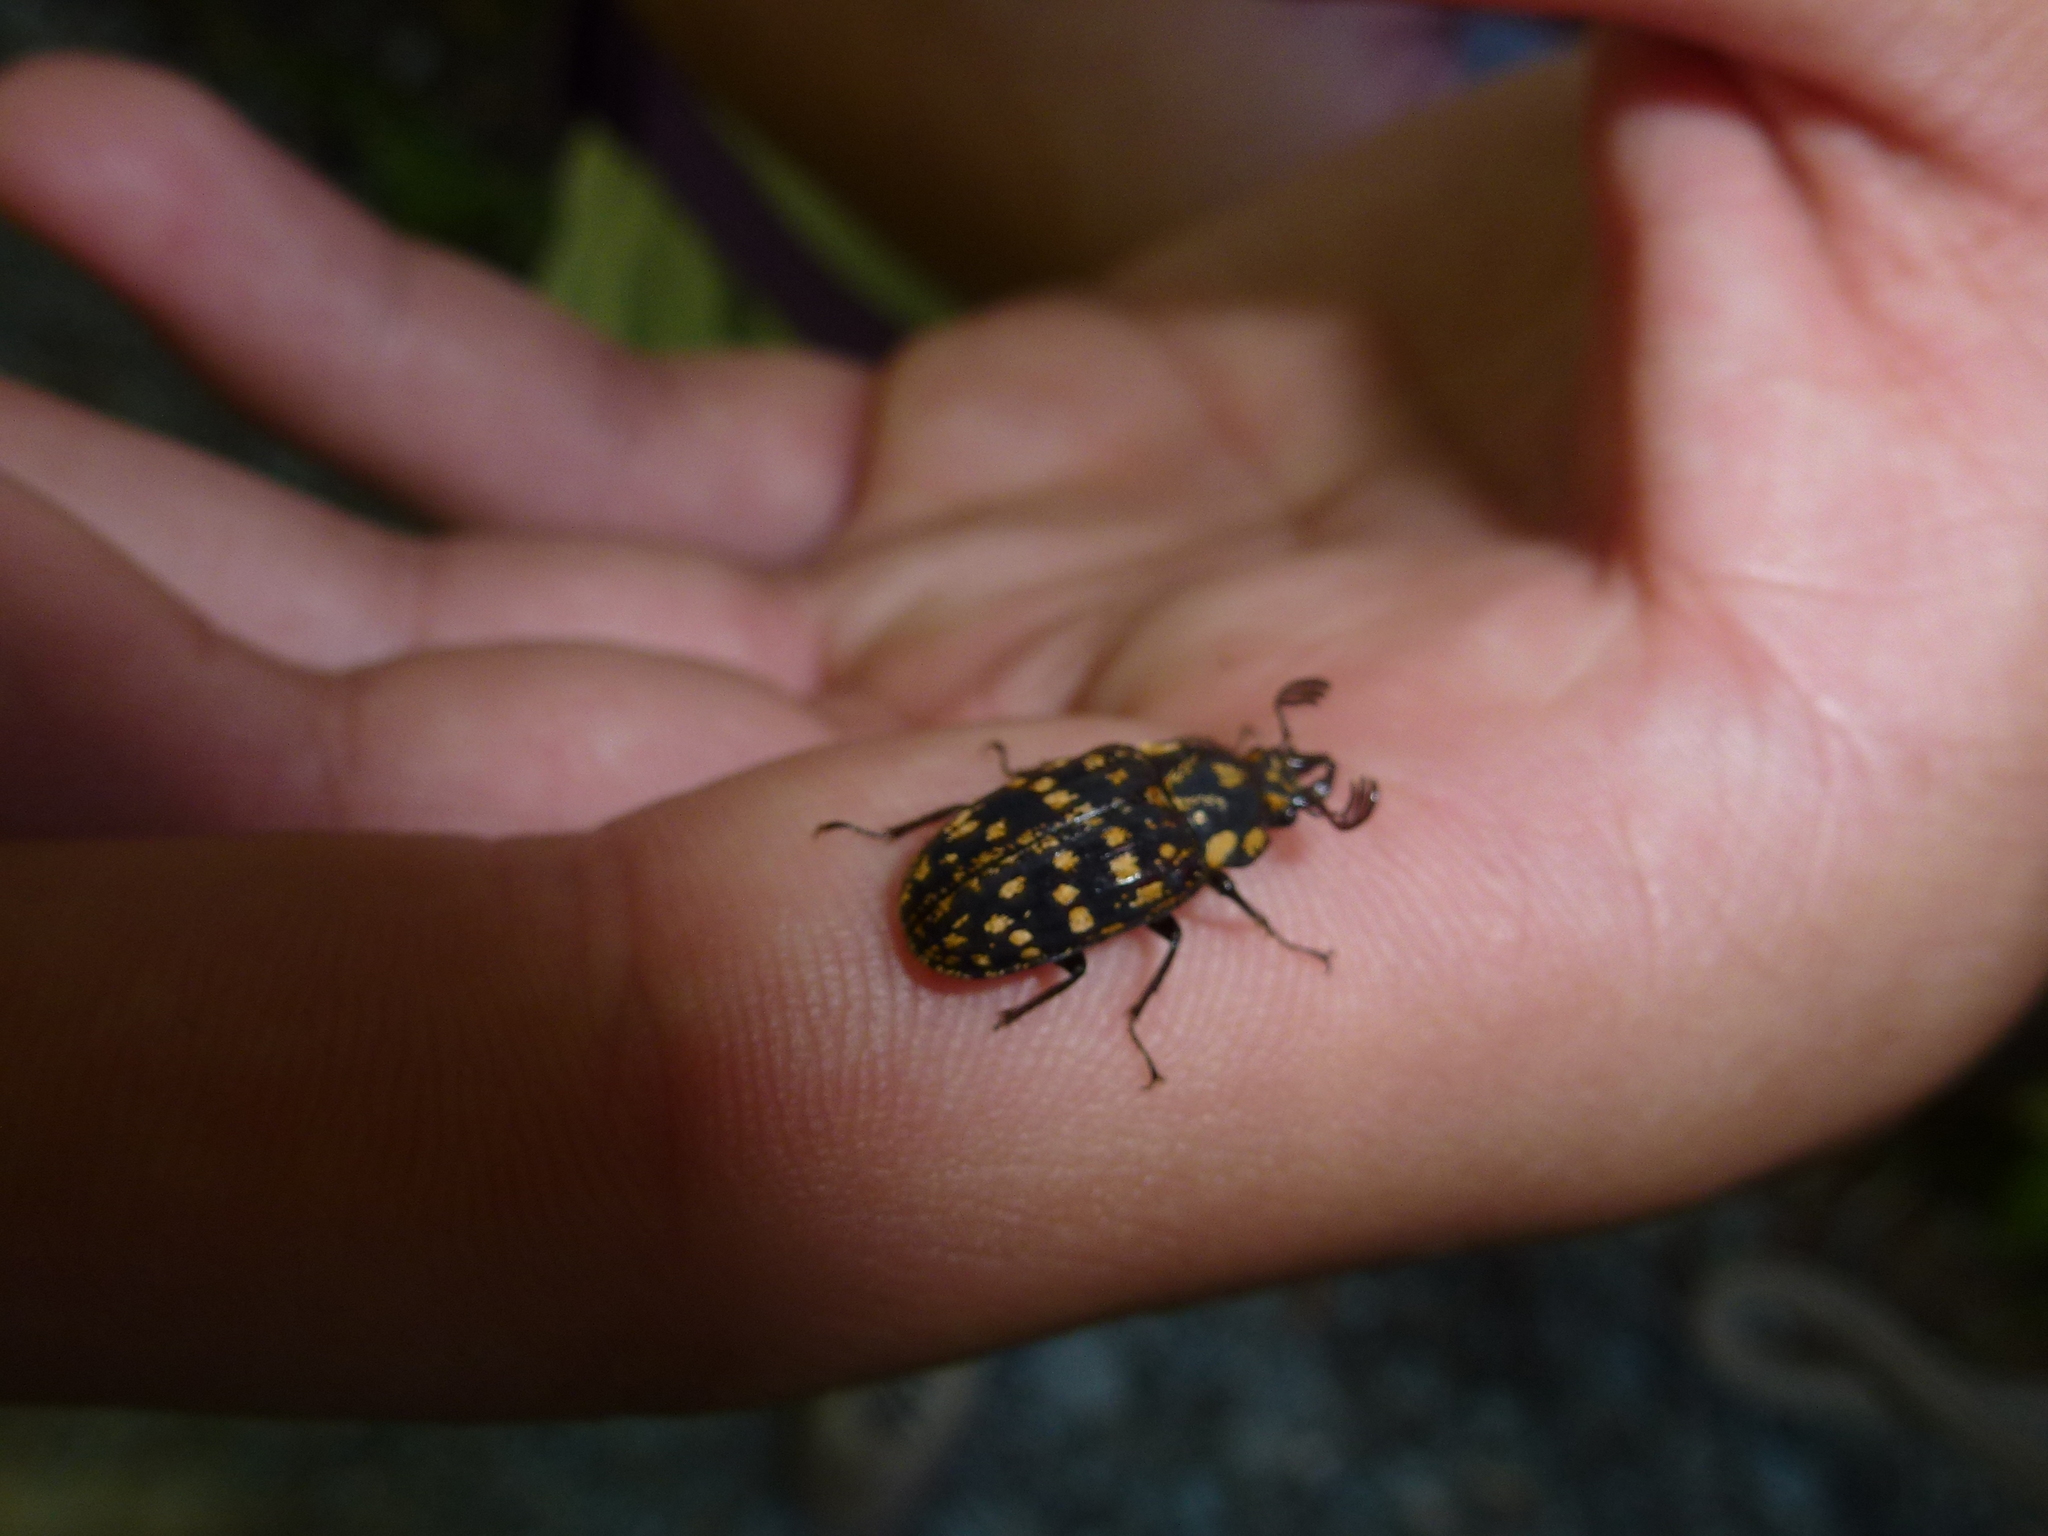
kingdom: Animalia
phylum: Arthropoda
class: Insecta
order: Coleoptera
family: Lucanidae
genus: Mitophyllus
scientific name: Mitophyllus foveolatus
